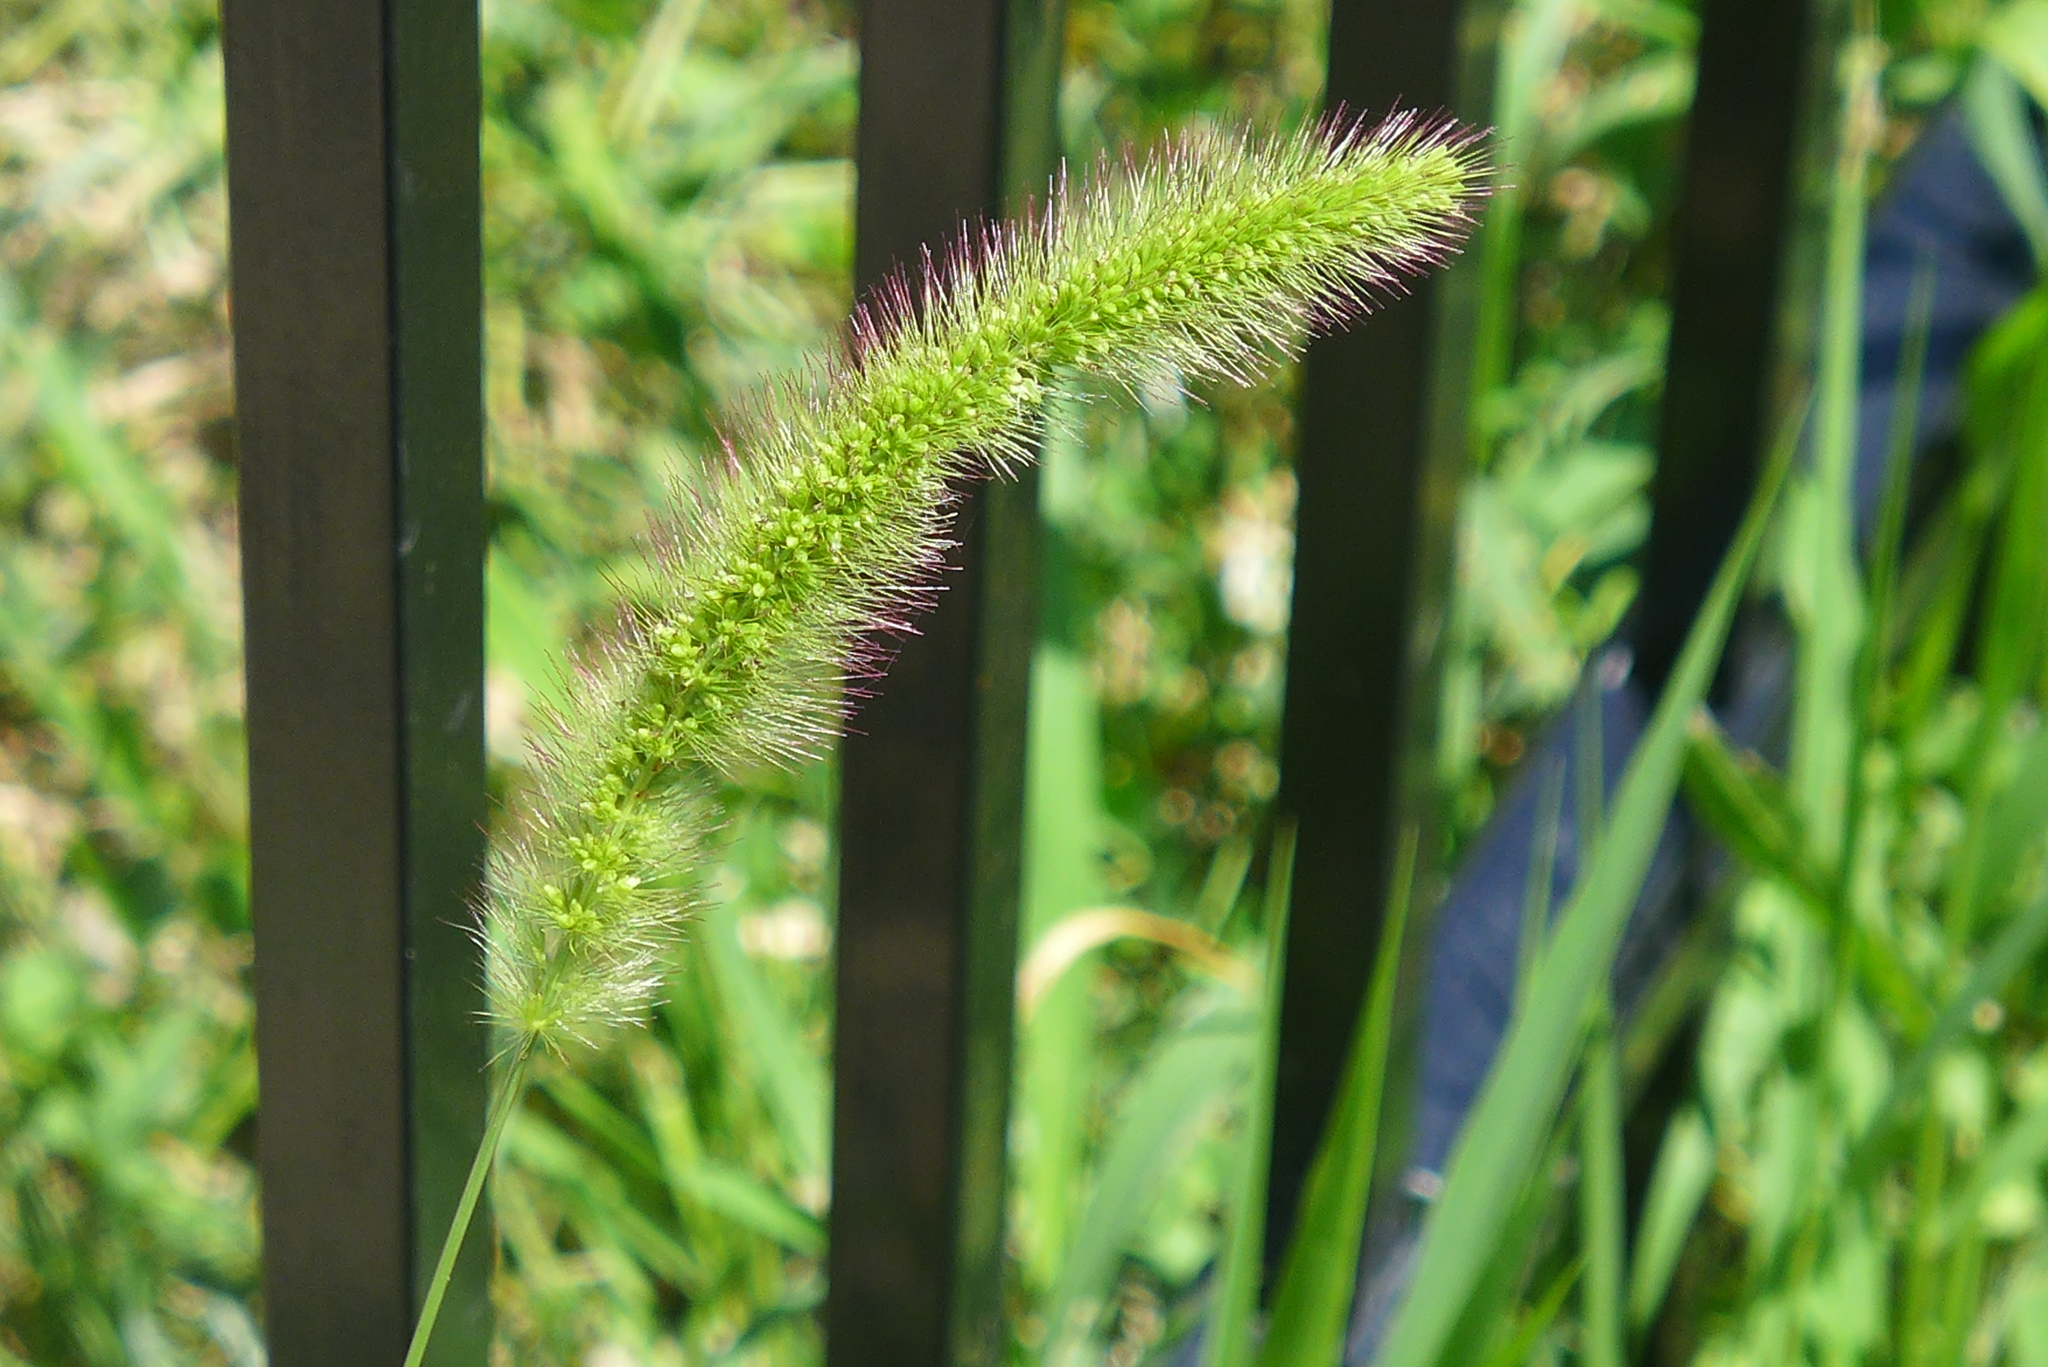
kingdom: Plantae
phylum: Tracheophyta
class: Liliopsida
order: Poales
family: Poaceae
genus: Setaria
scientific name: Setaria faberi
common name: Nodding bristle-grass
